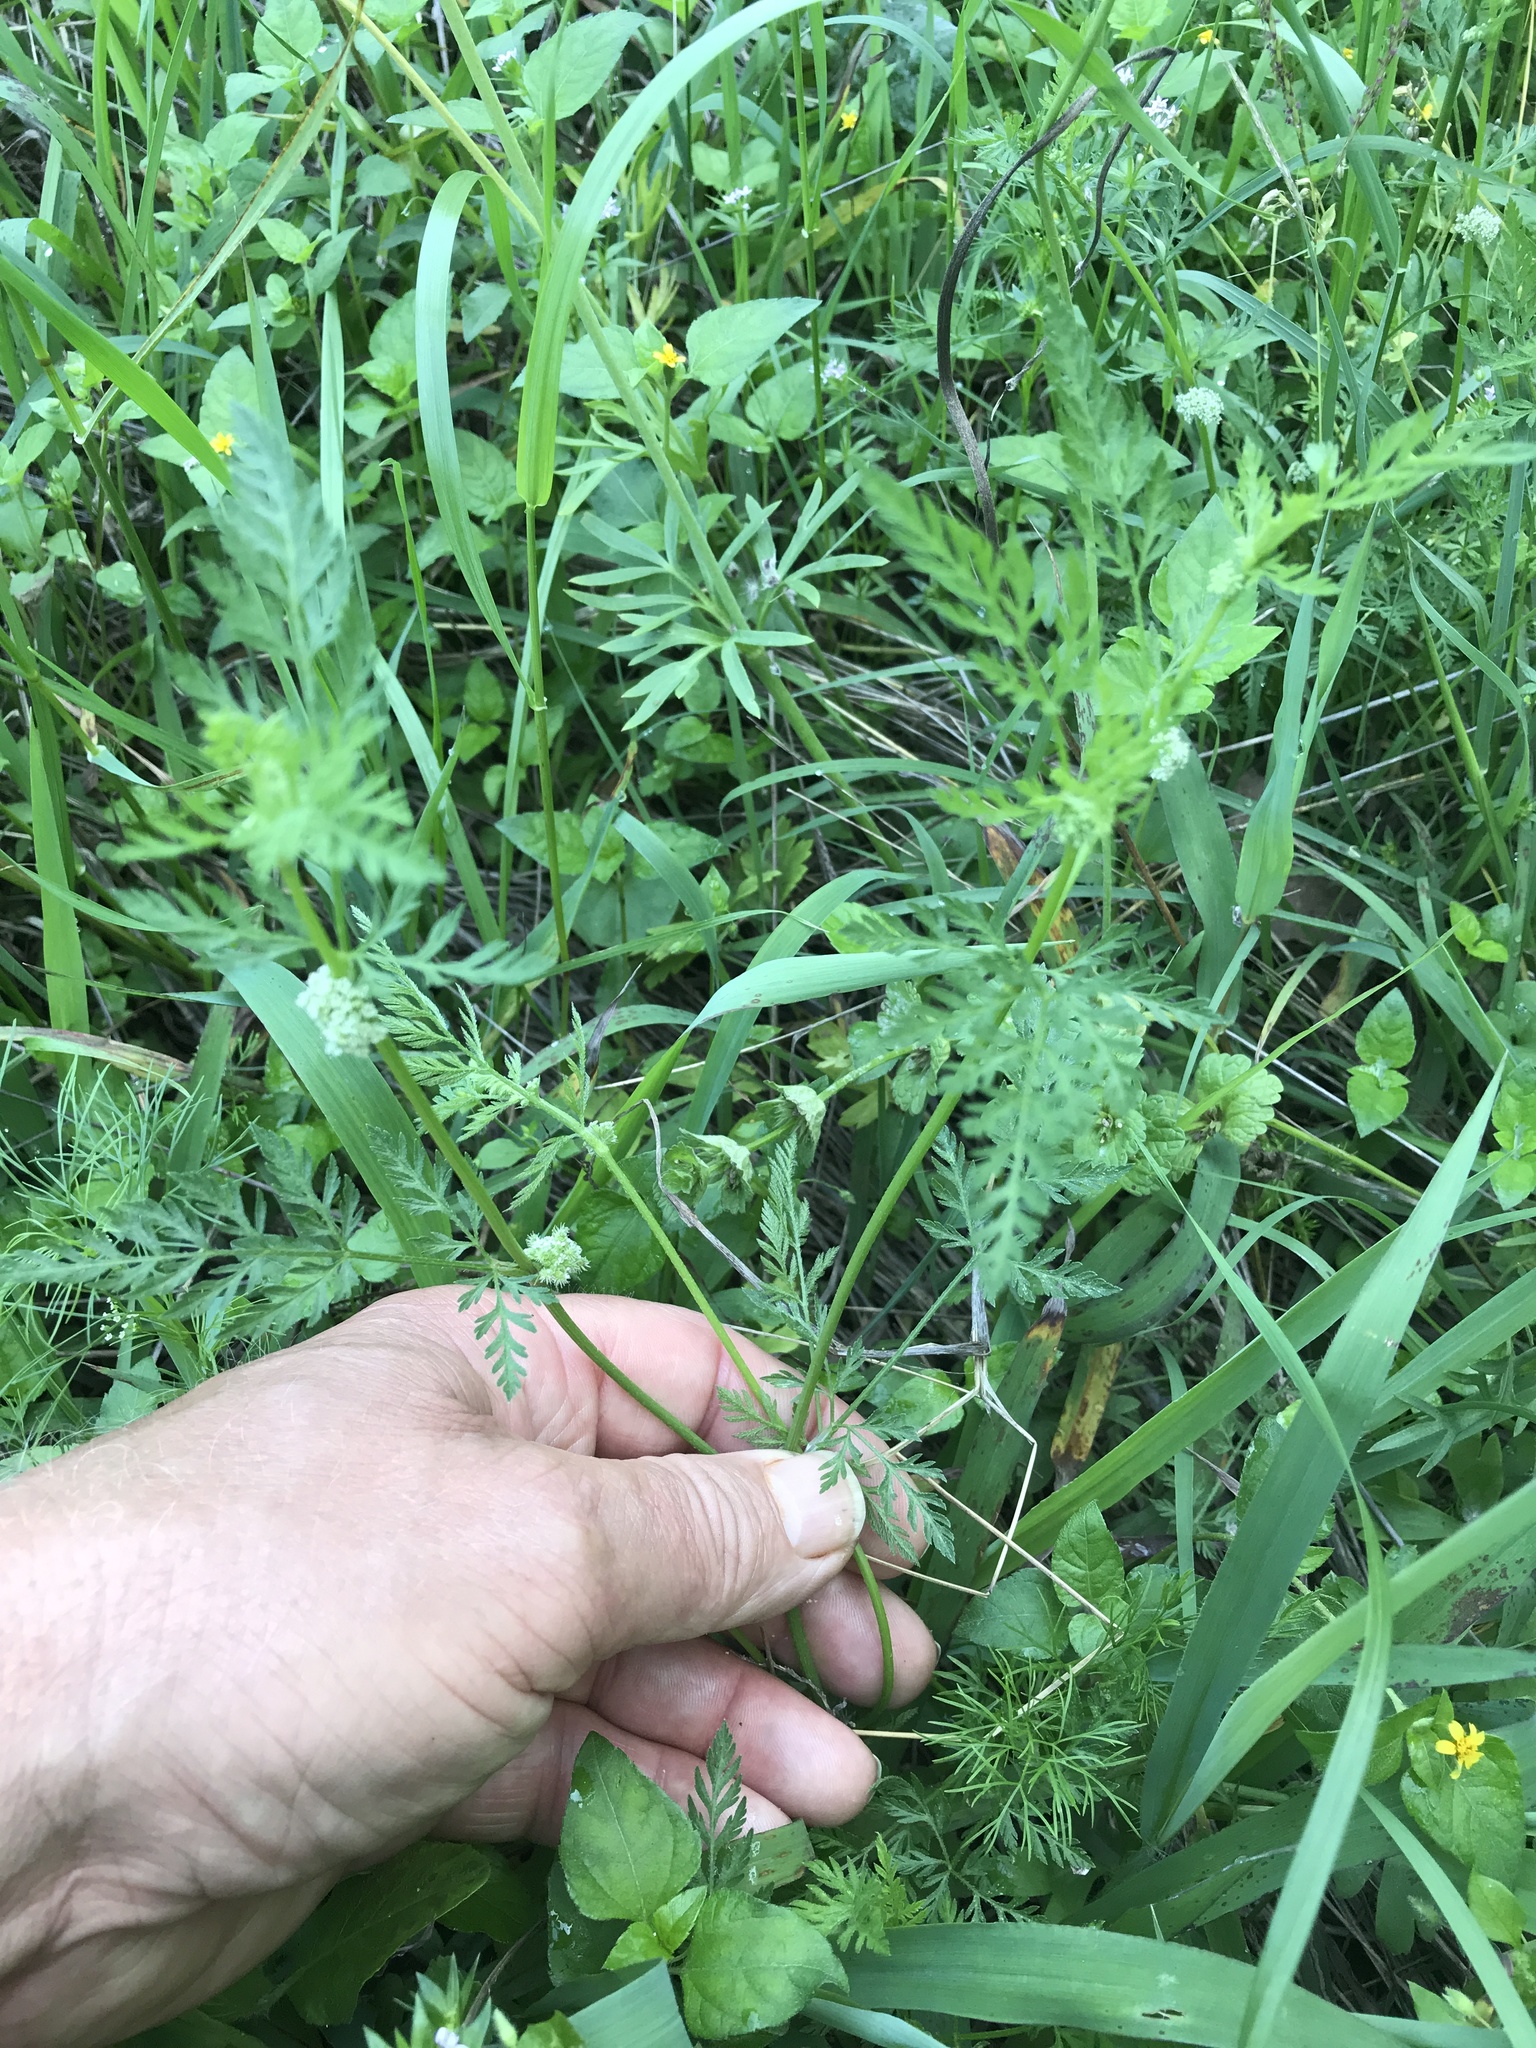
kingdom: Plantae
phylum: Tracheophyta
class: Magnoliopsida
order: Apiales
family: Apiaceae
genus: Torilis
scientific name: Torilis nodosa
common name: Knotted hedge-parsley
